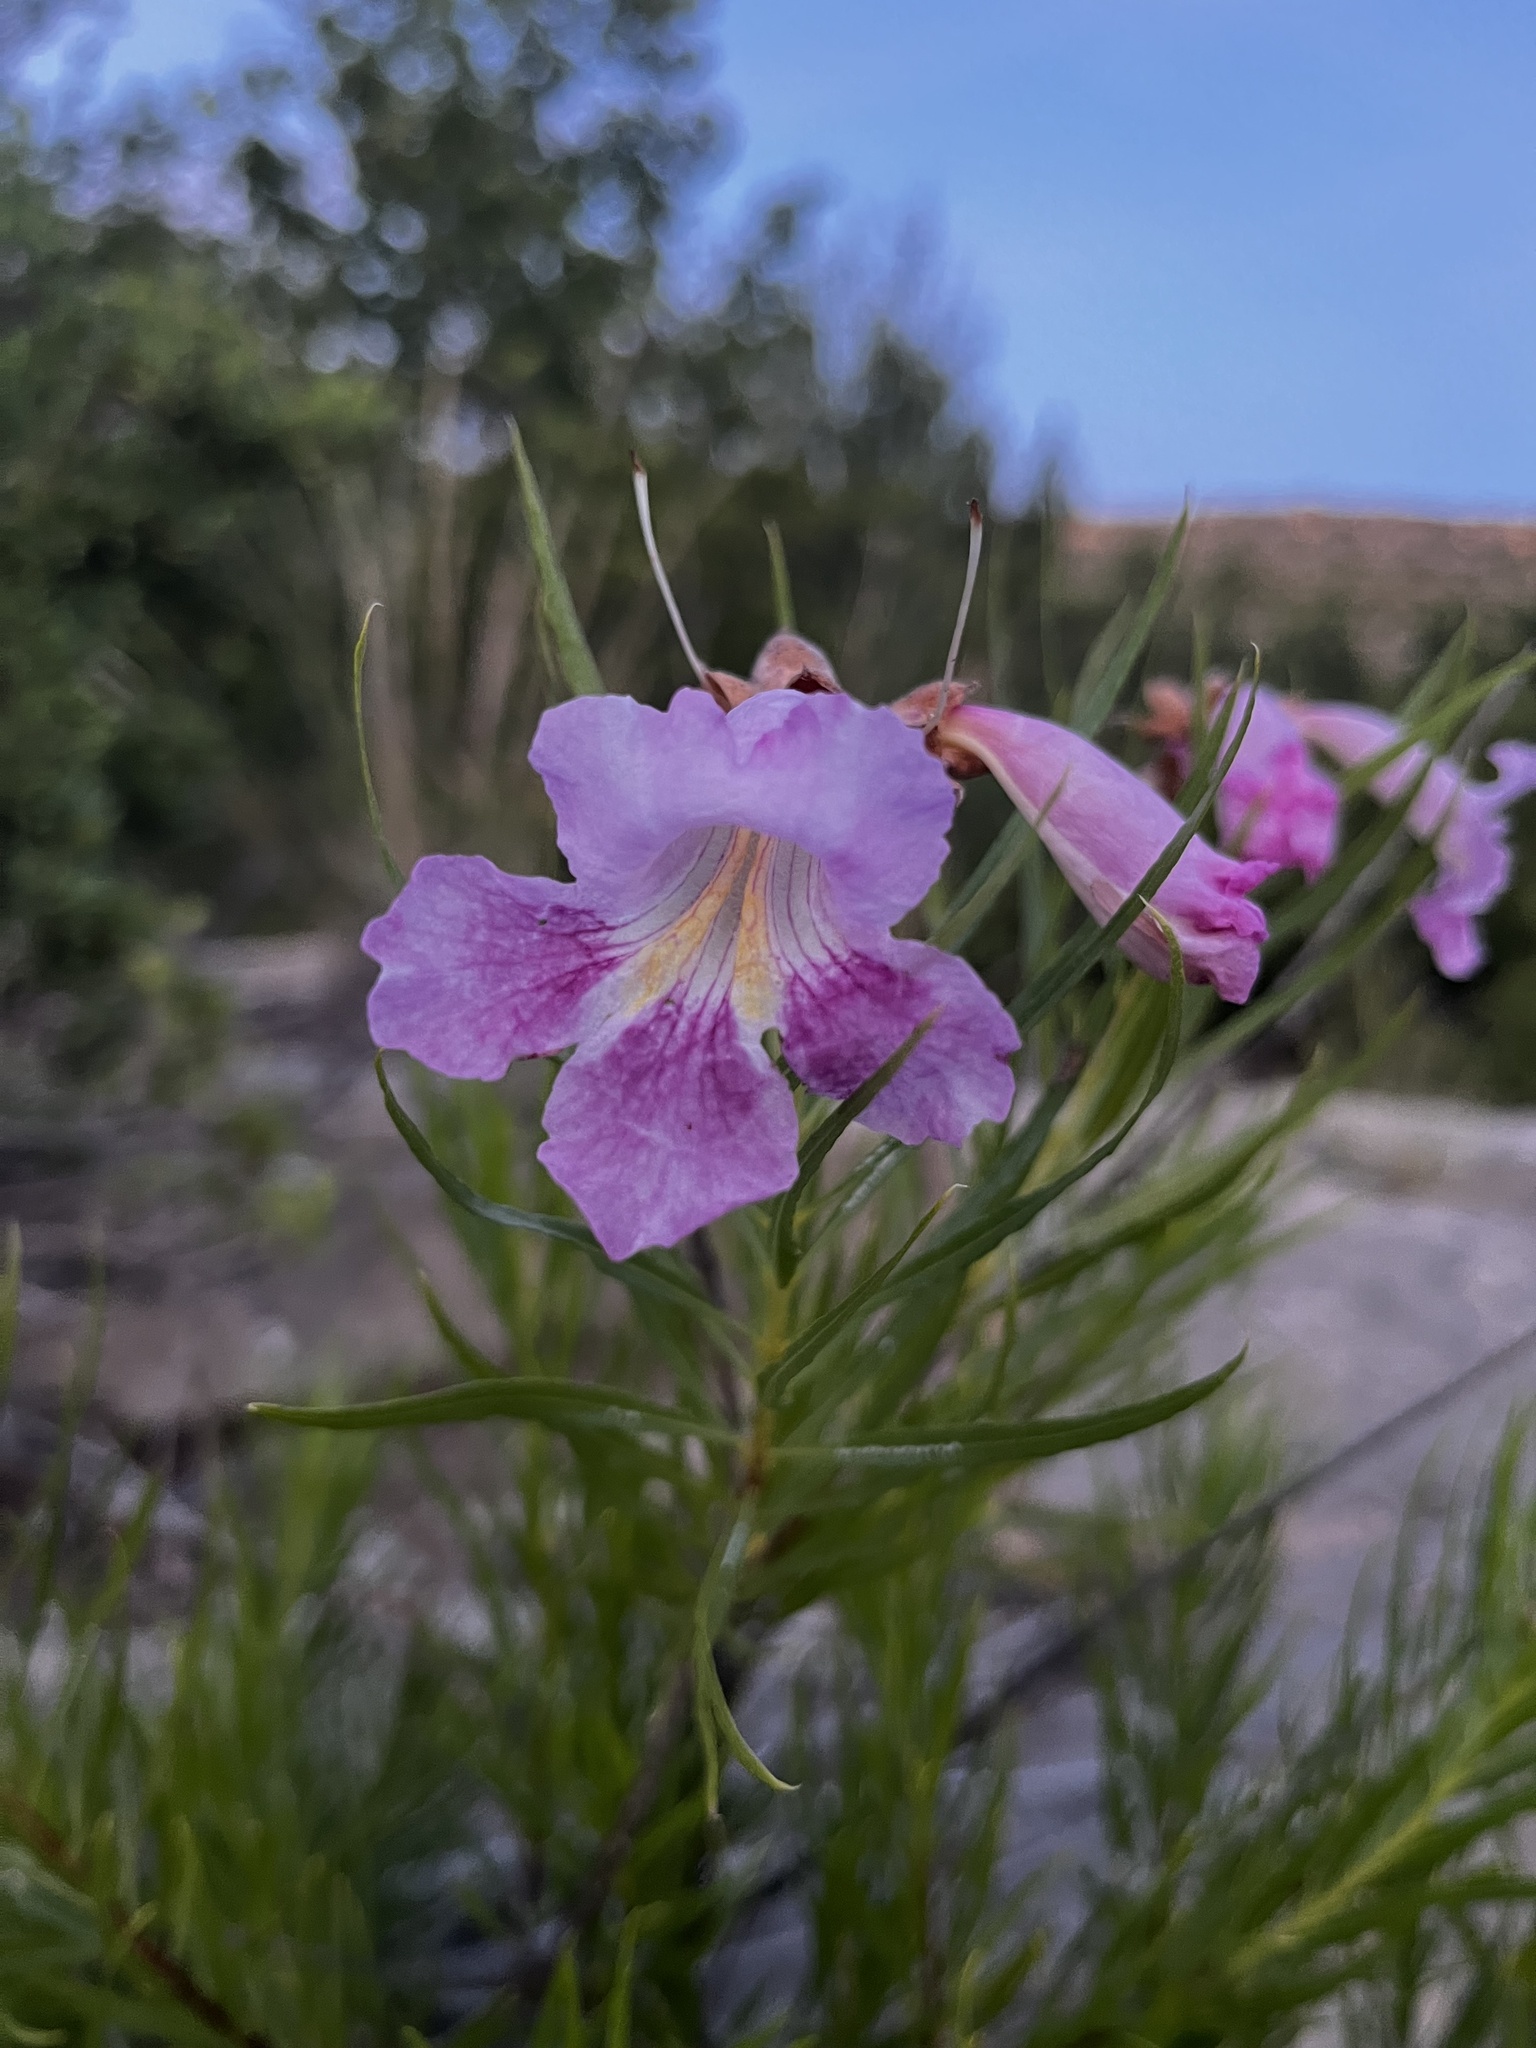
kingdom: Plantae
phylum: Tracheophyta
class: Magnoliopsida
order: Lamiales
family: Bignoniaceae
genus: Chilopsis
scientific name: Chilopsis linearis
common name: Desert-willow
